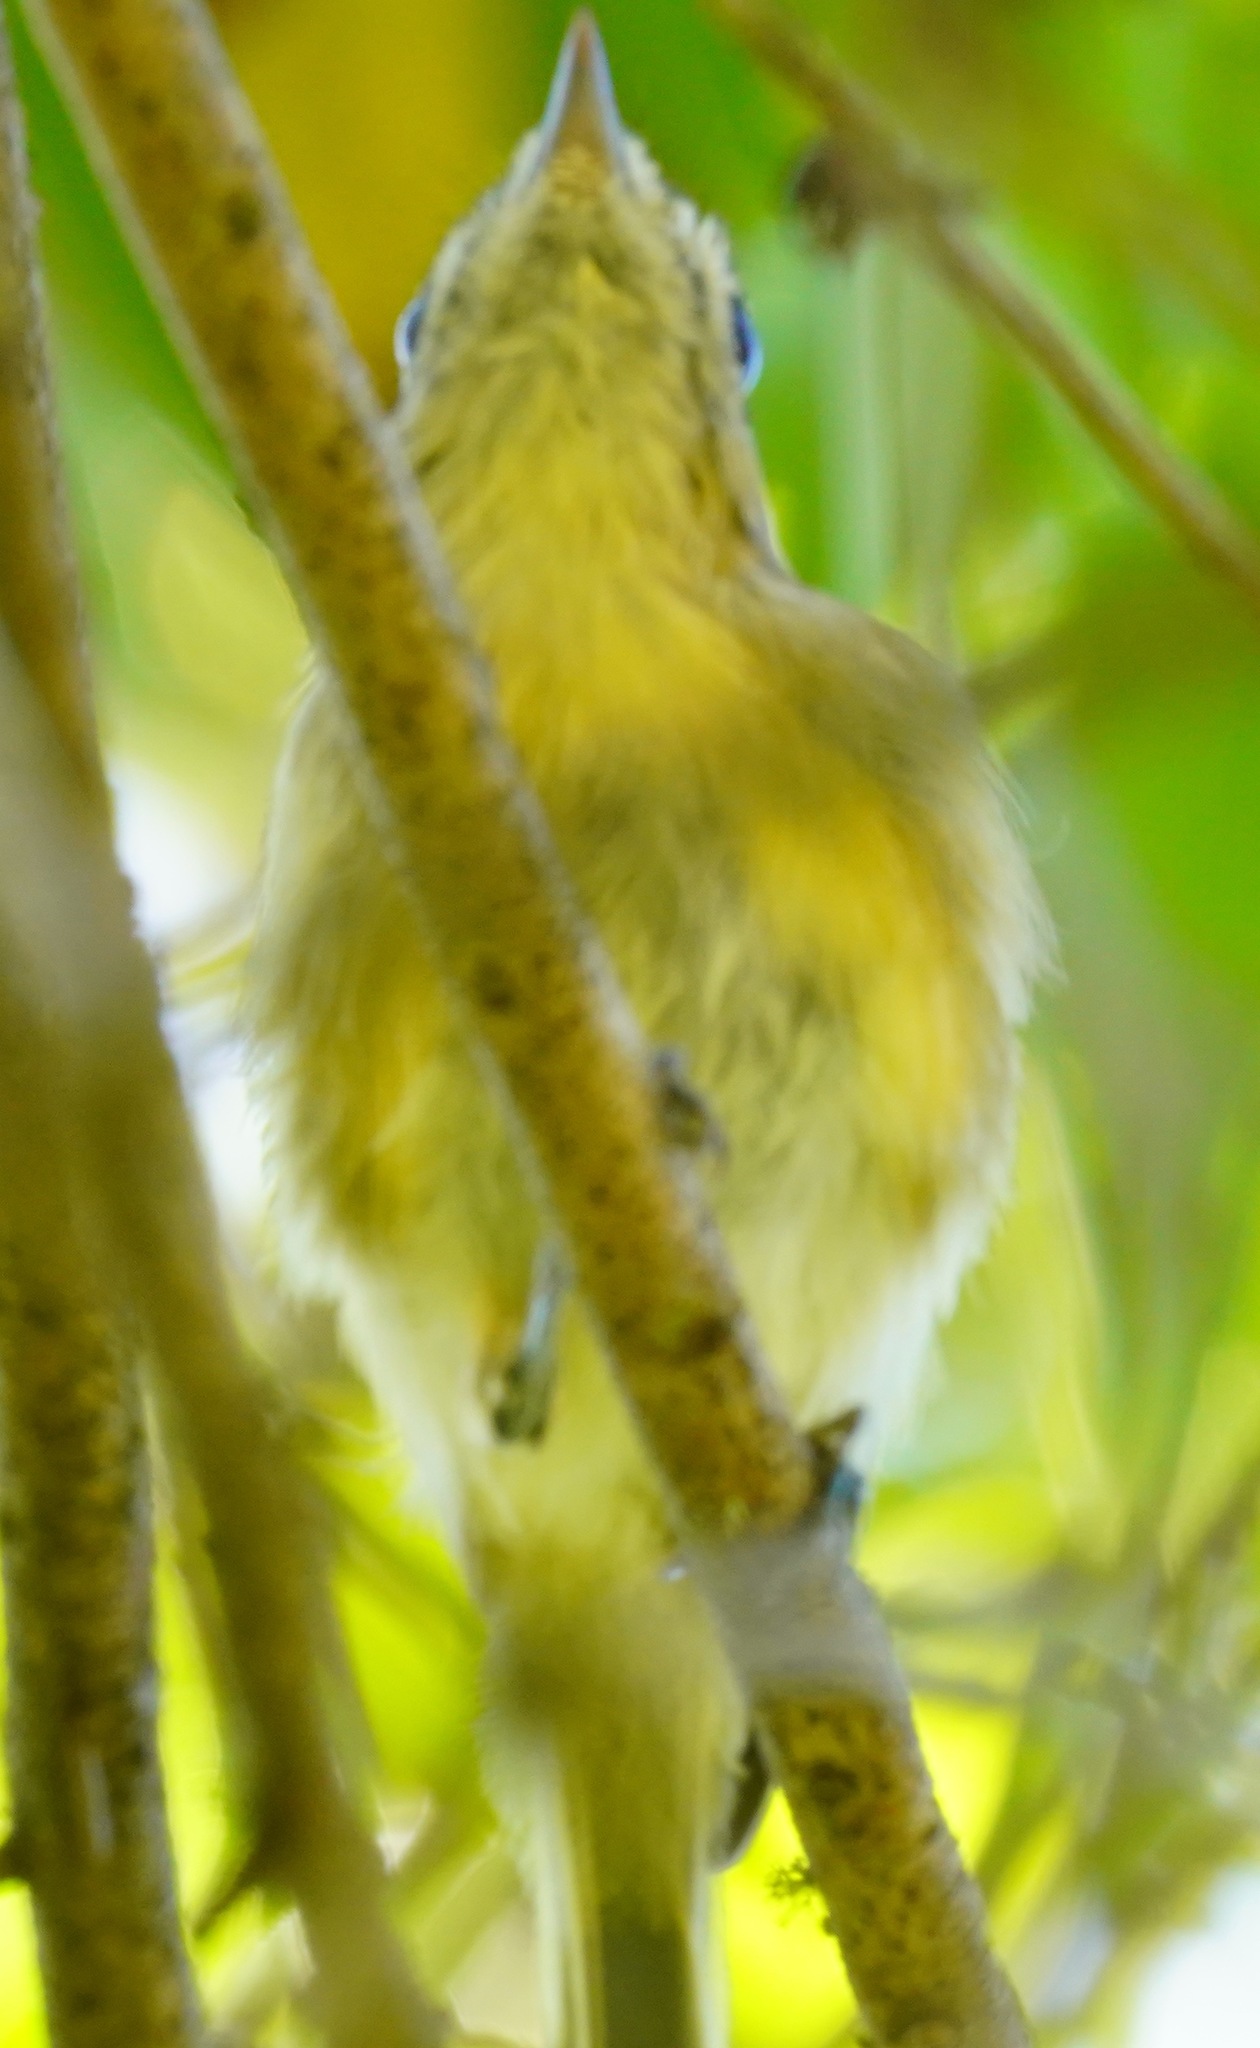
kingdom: Animalia
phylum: Chordata
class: Aves
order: Passeriformes
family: Vireonidae
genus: Vireo
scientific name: Vireo huttoni
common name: Hutton's vireo
